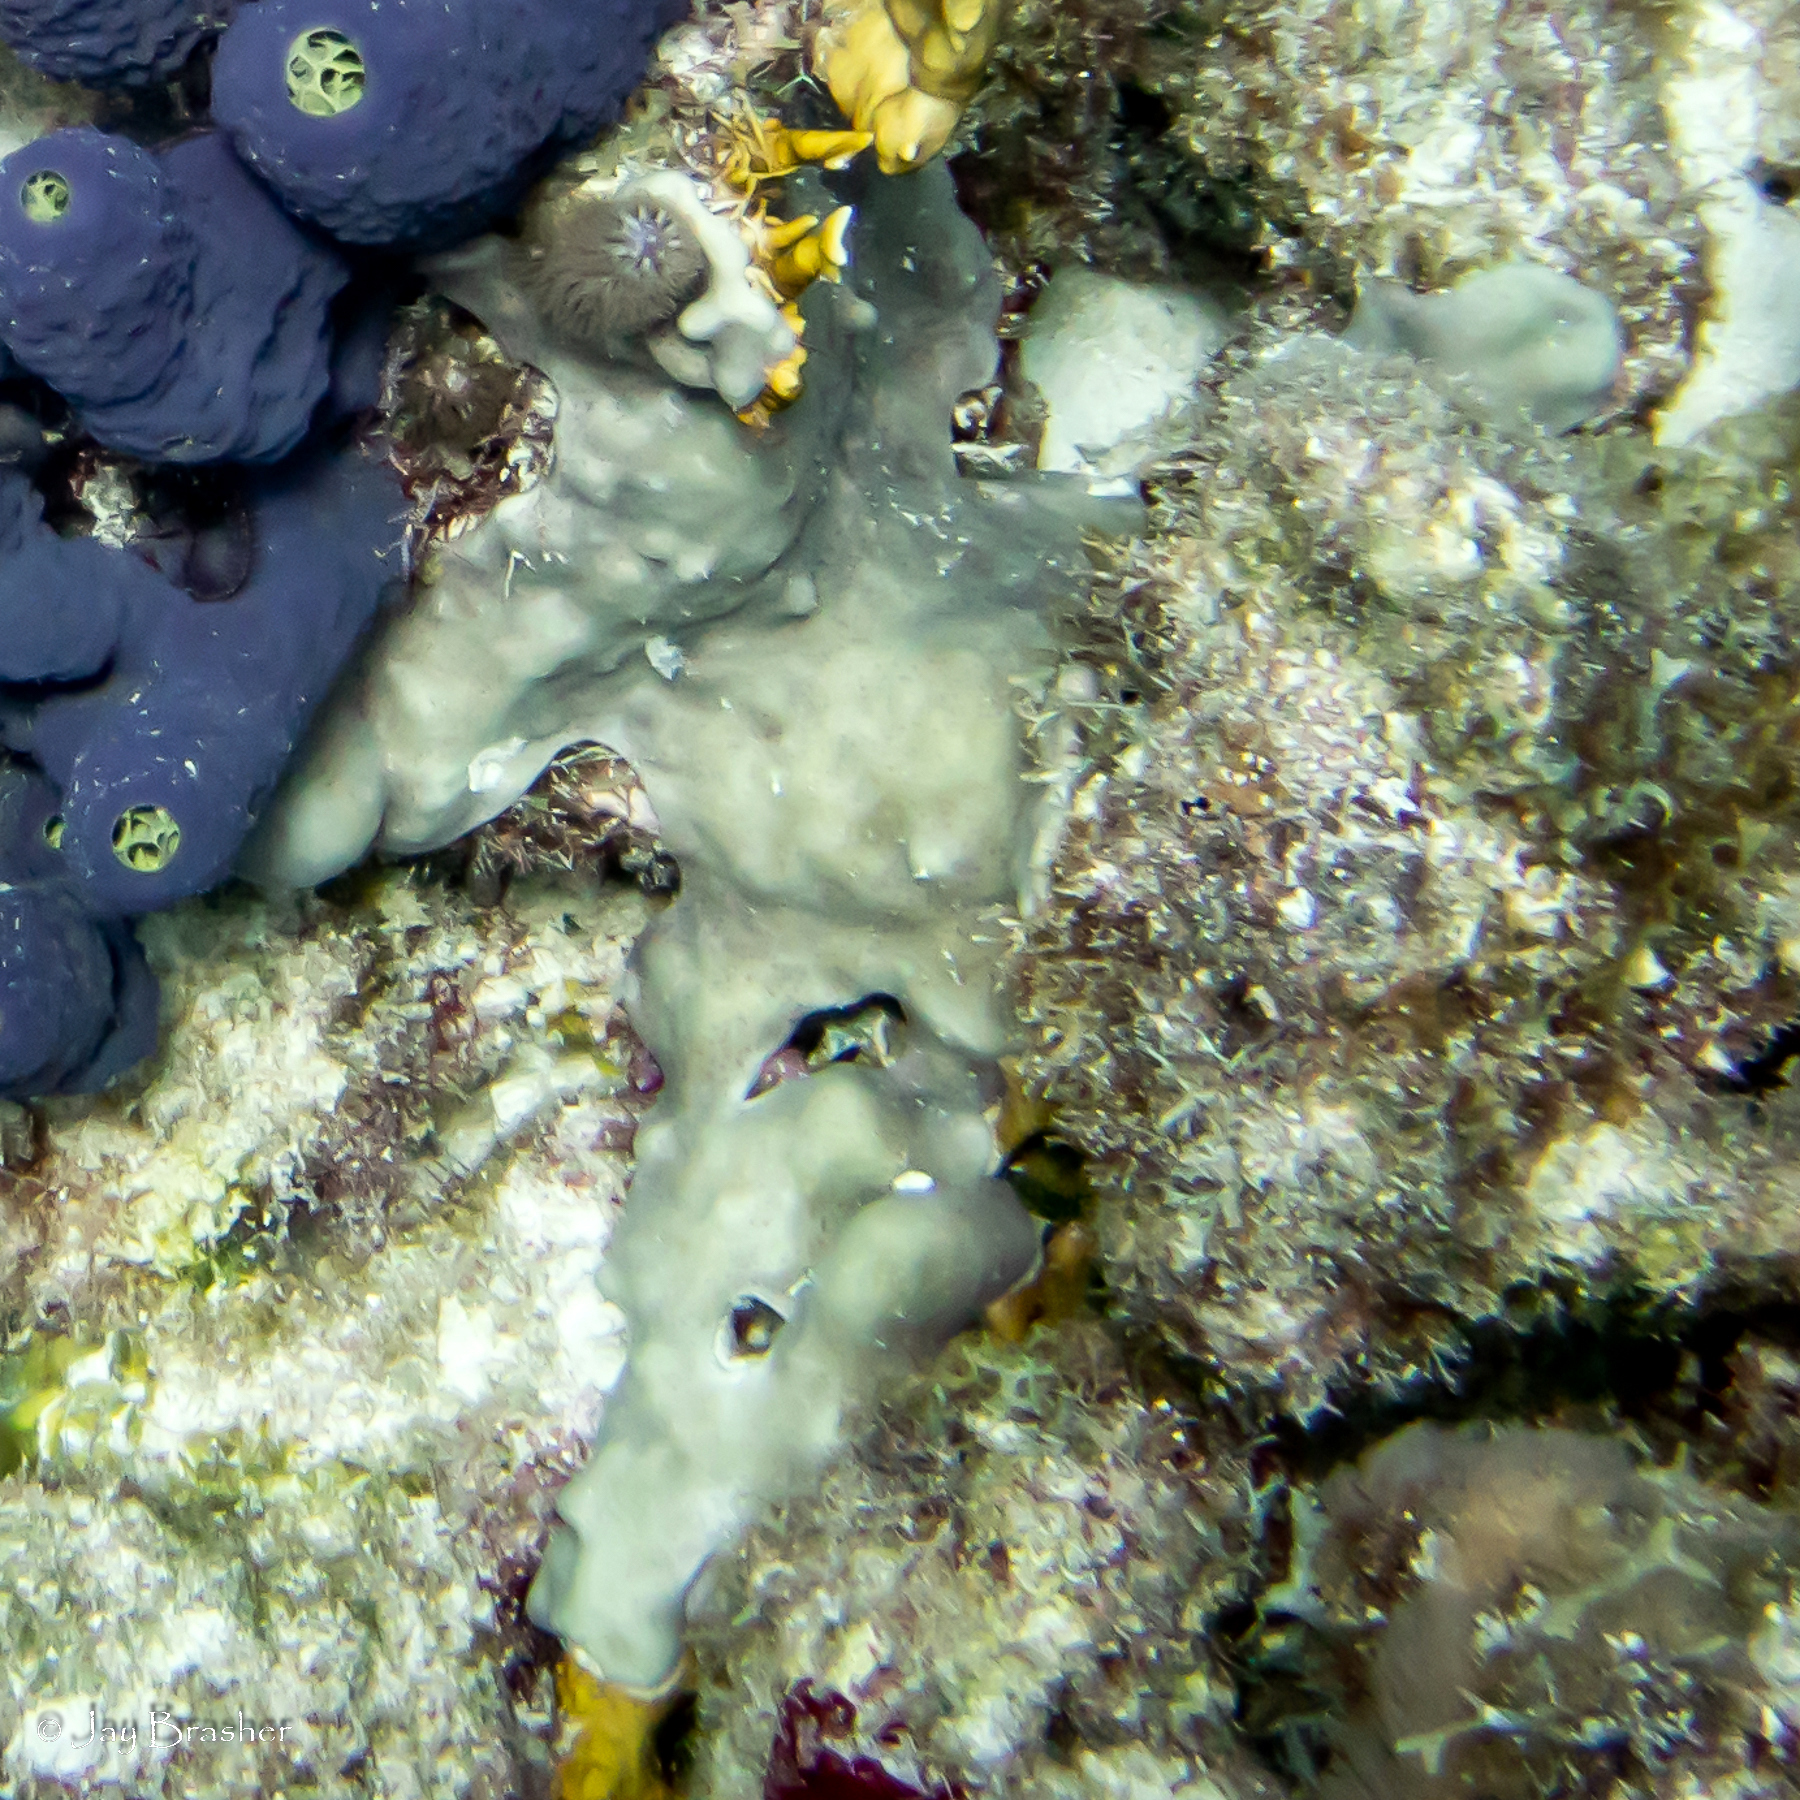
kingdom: Animalia
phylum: Chordata
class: Ascidiacea
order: Aplousobranchia
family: Didemnidae
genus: Trididemnum
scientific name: Trididemnum solidum
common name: Overgrowing mat tunicate
